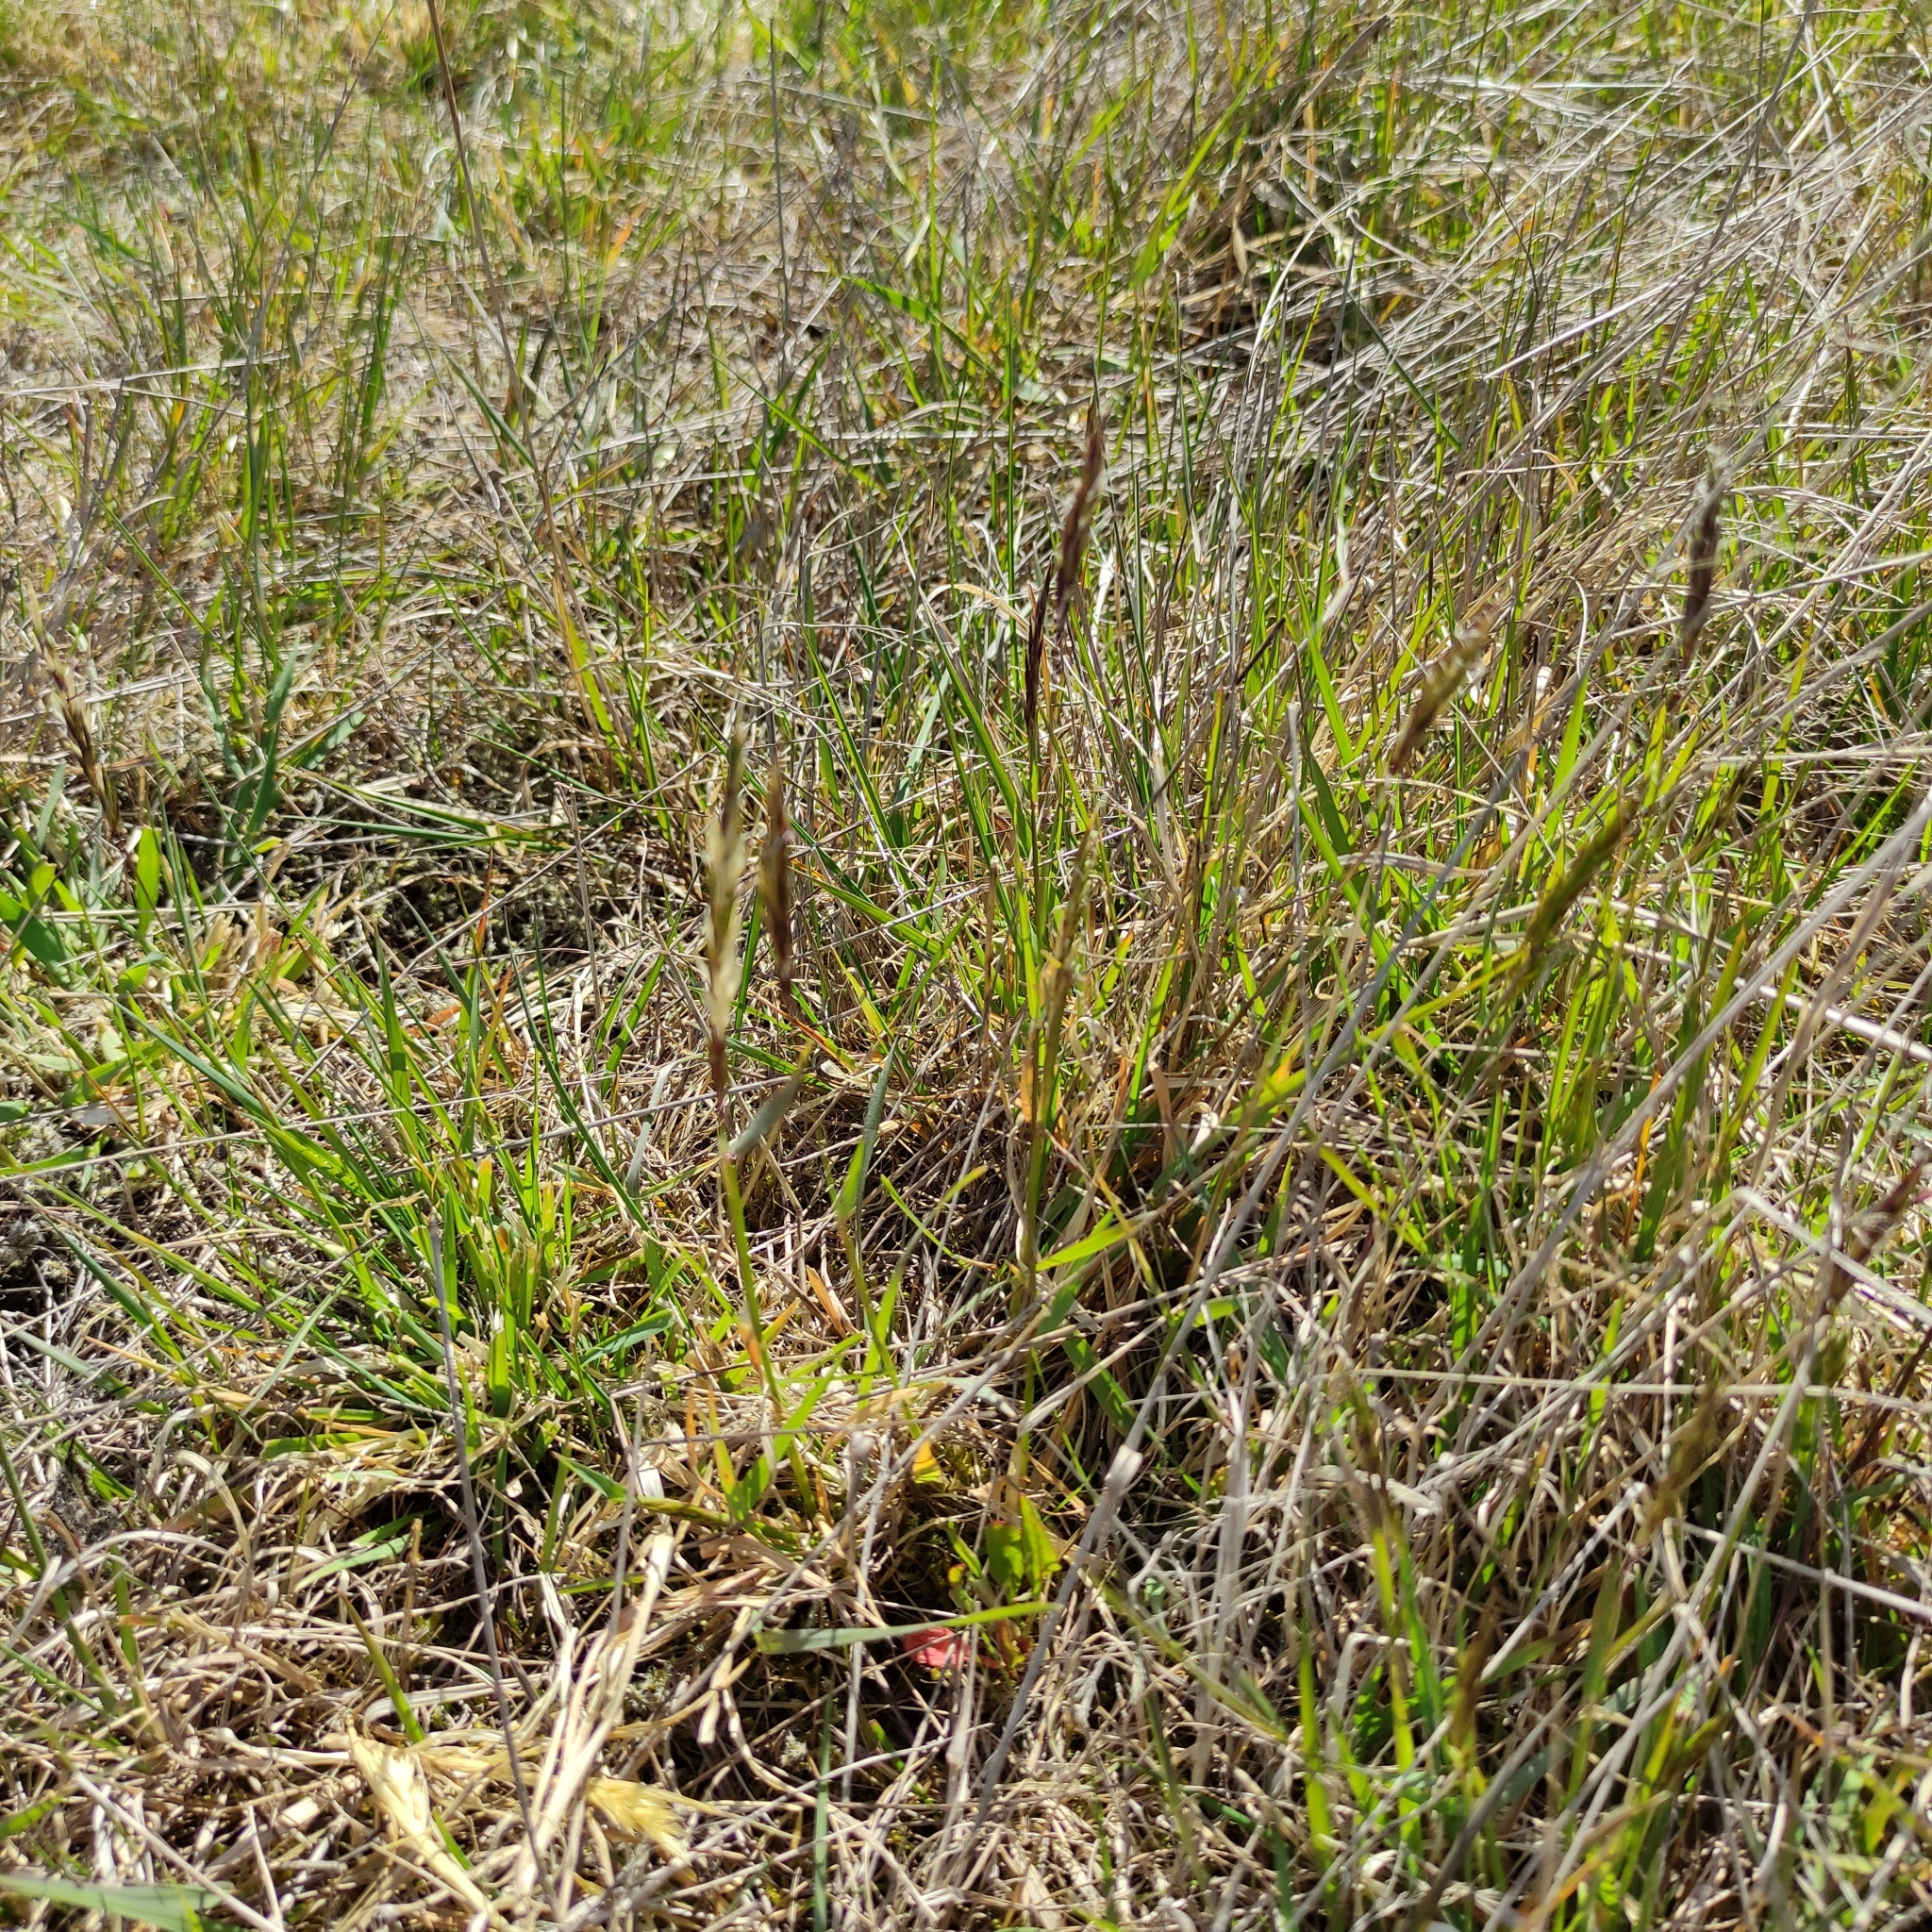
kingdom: Plantae
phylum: Tracheophyta
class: Liliopsida
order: Poales
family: Poaceae
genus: Anthoxanthum
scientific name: Anthoxanthum odoratum
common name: Sweet vernalgrass
